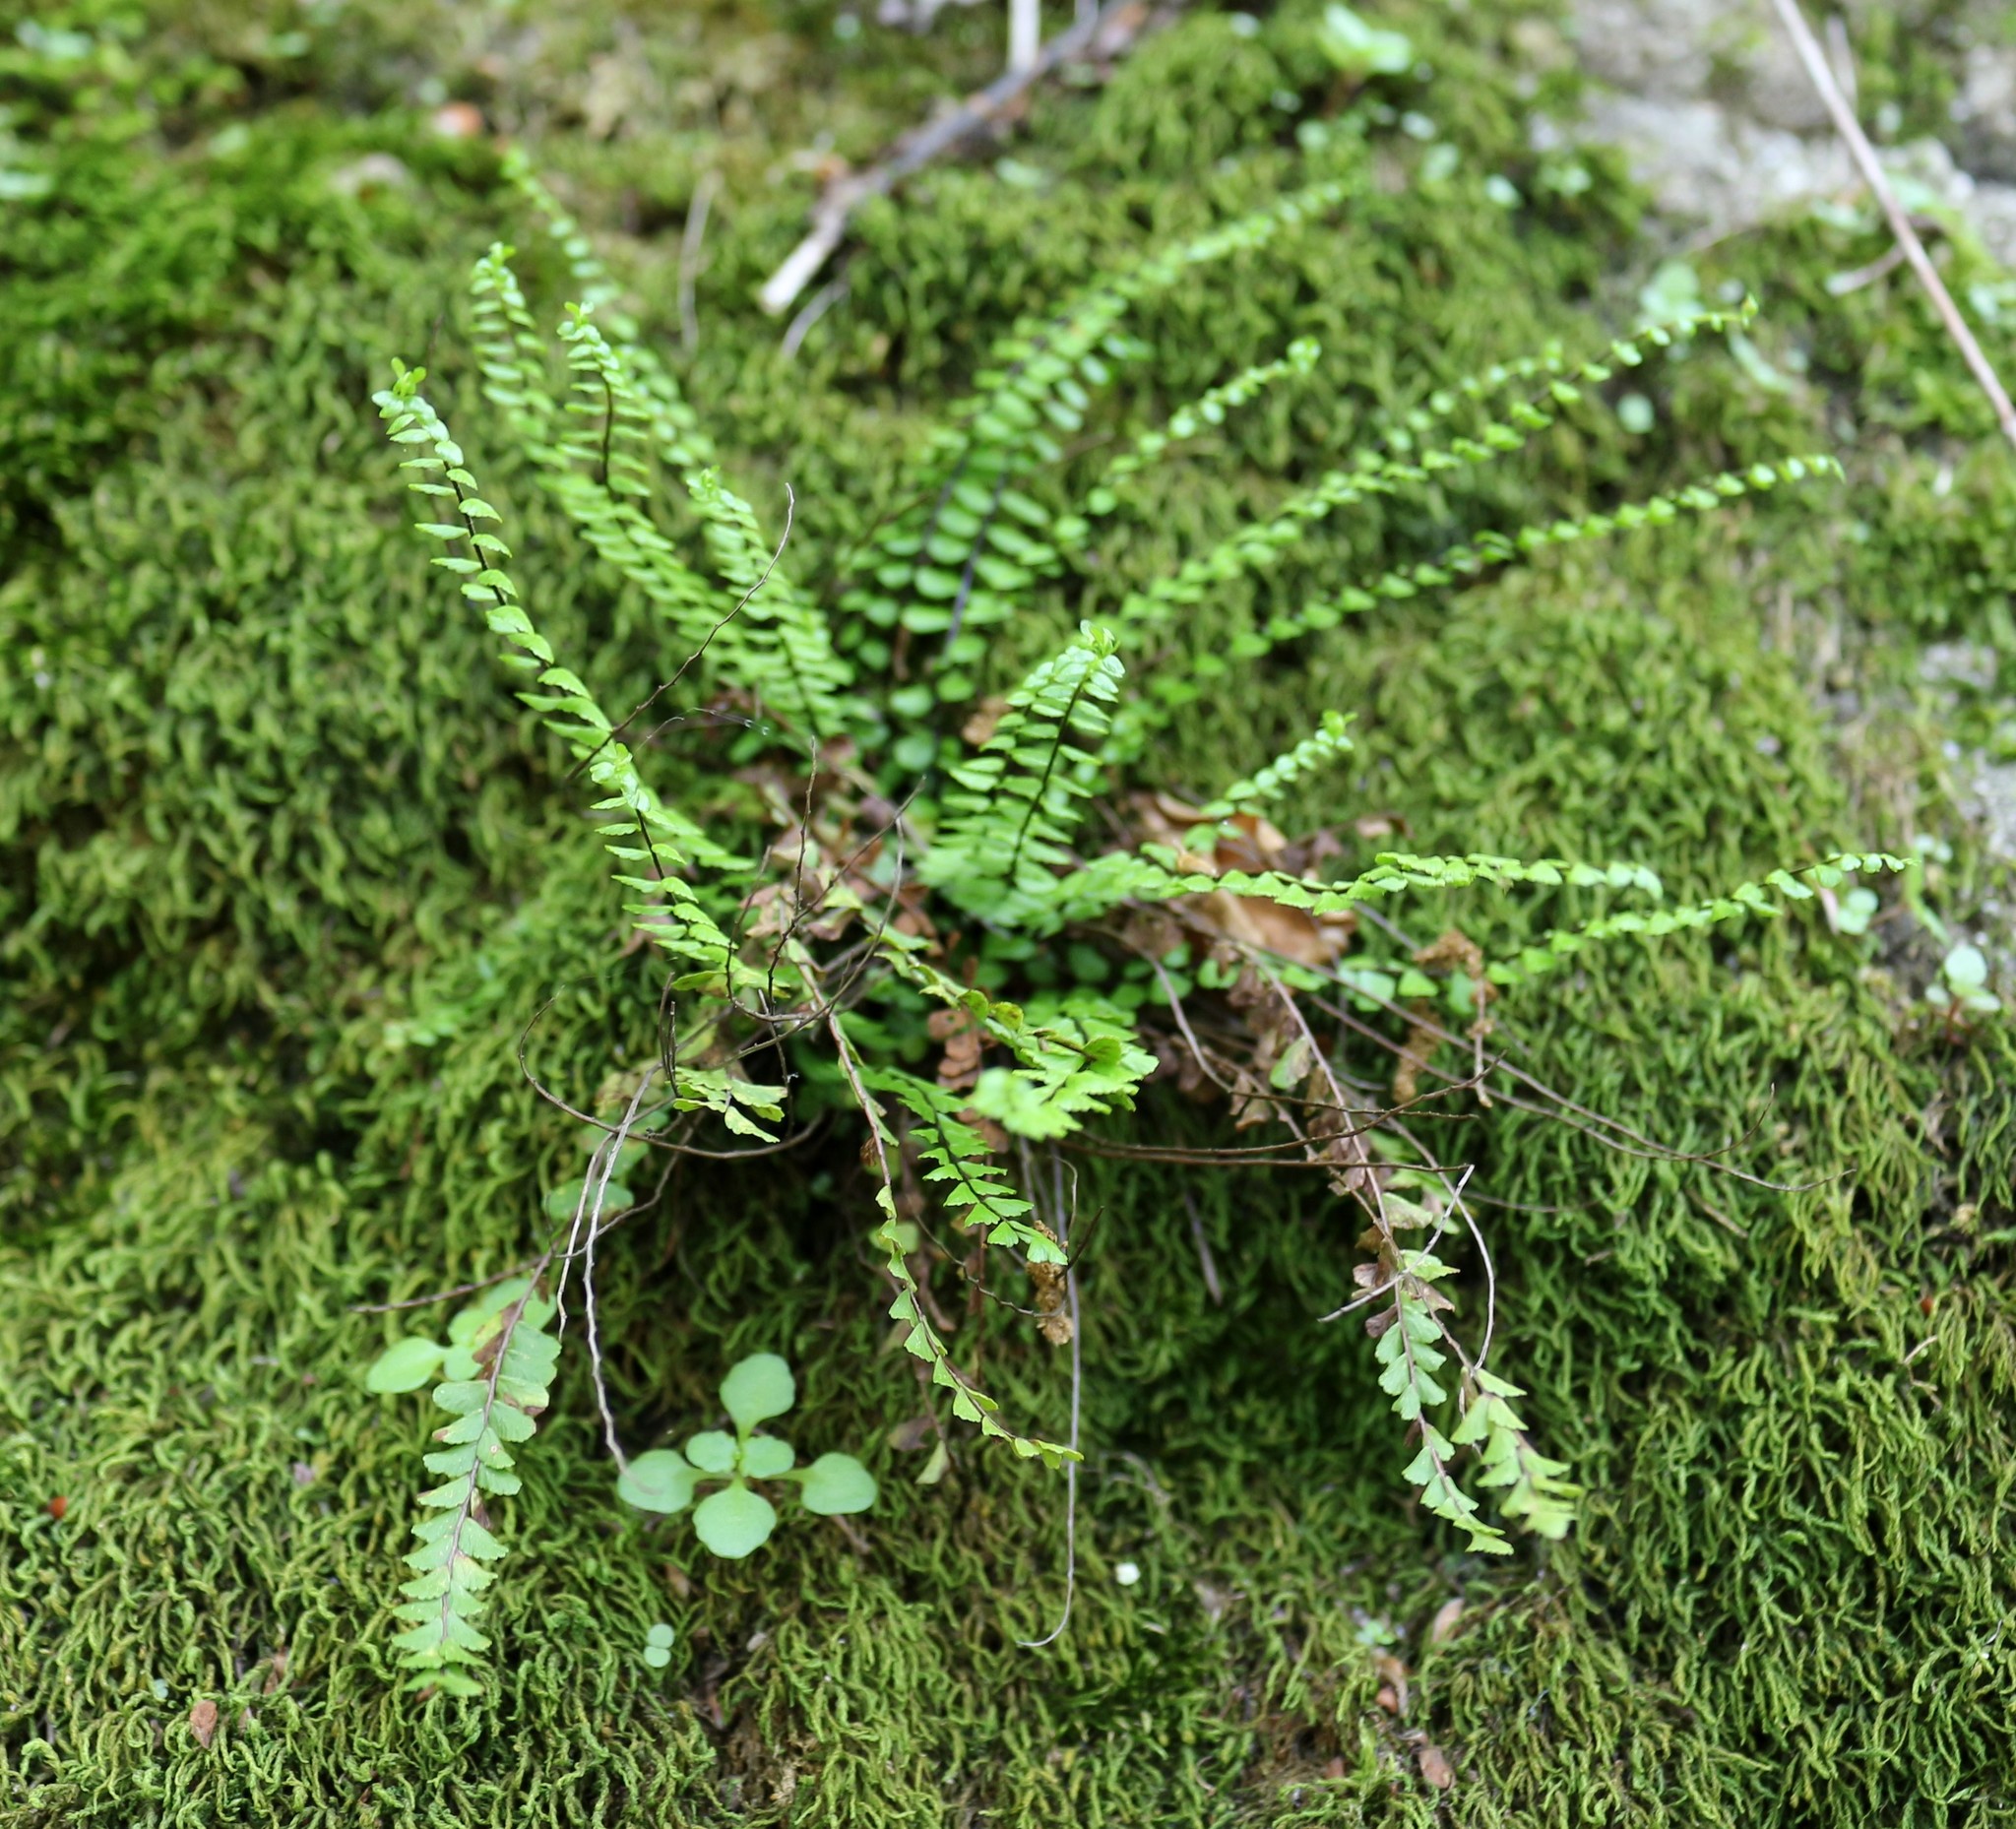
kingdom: Plantae
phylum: Tracheophyta
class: Polypodiopsida
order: Polypodiales
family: Aspleniaceae
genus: Asplenium
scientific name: Asplenium trichomanes
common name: Maidenhair spleenwort
